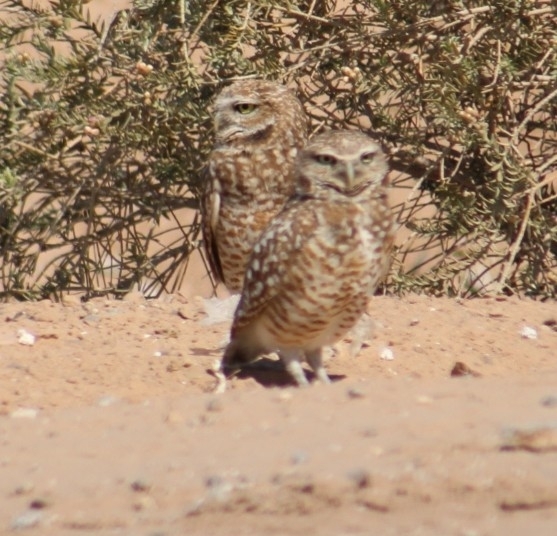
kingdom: Animalia
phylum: Chordata
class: Aves
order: Strigiformes
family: Strigidae
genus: Athene
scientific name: Athene cunicularia
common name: Burrowing owl
